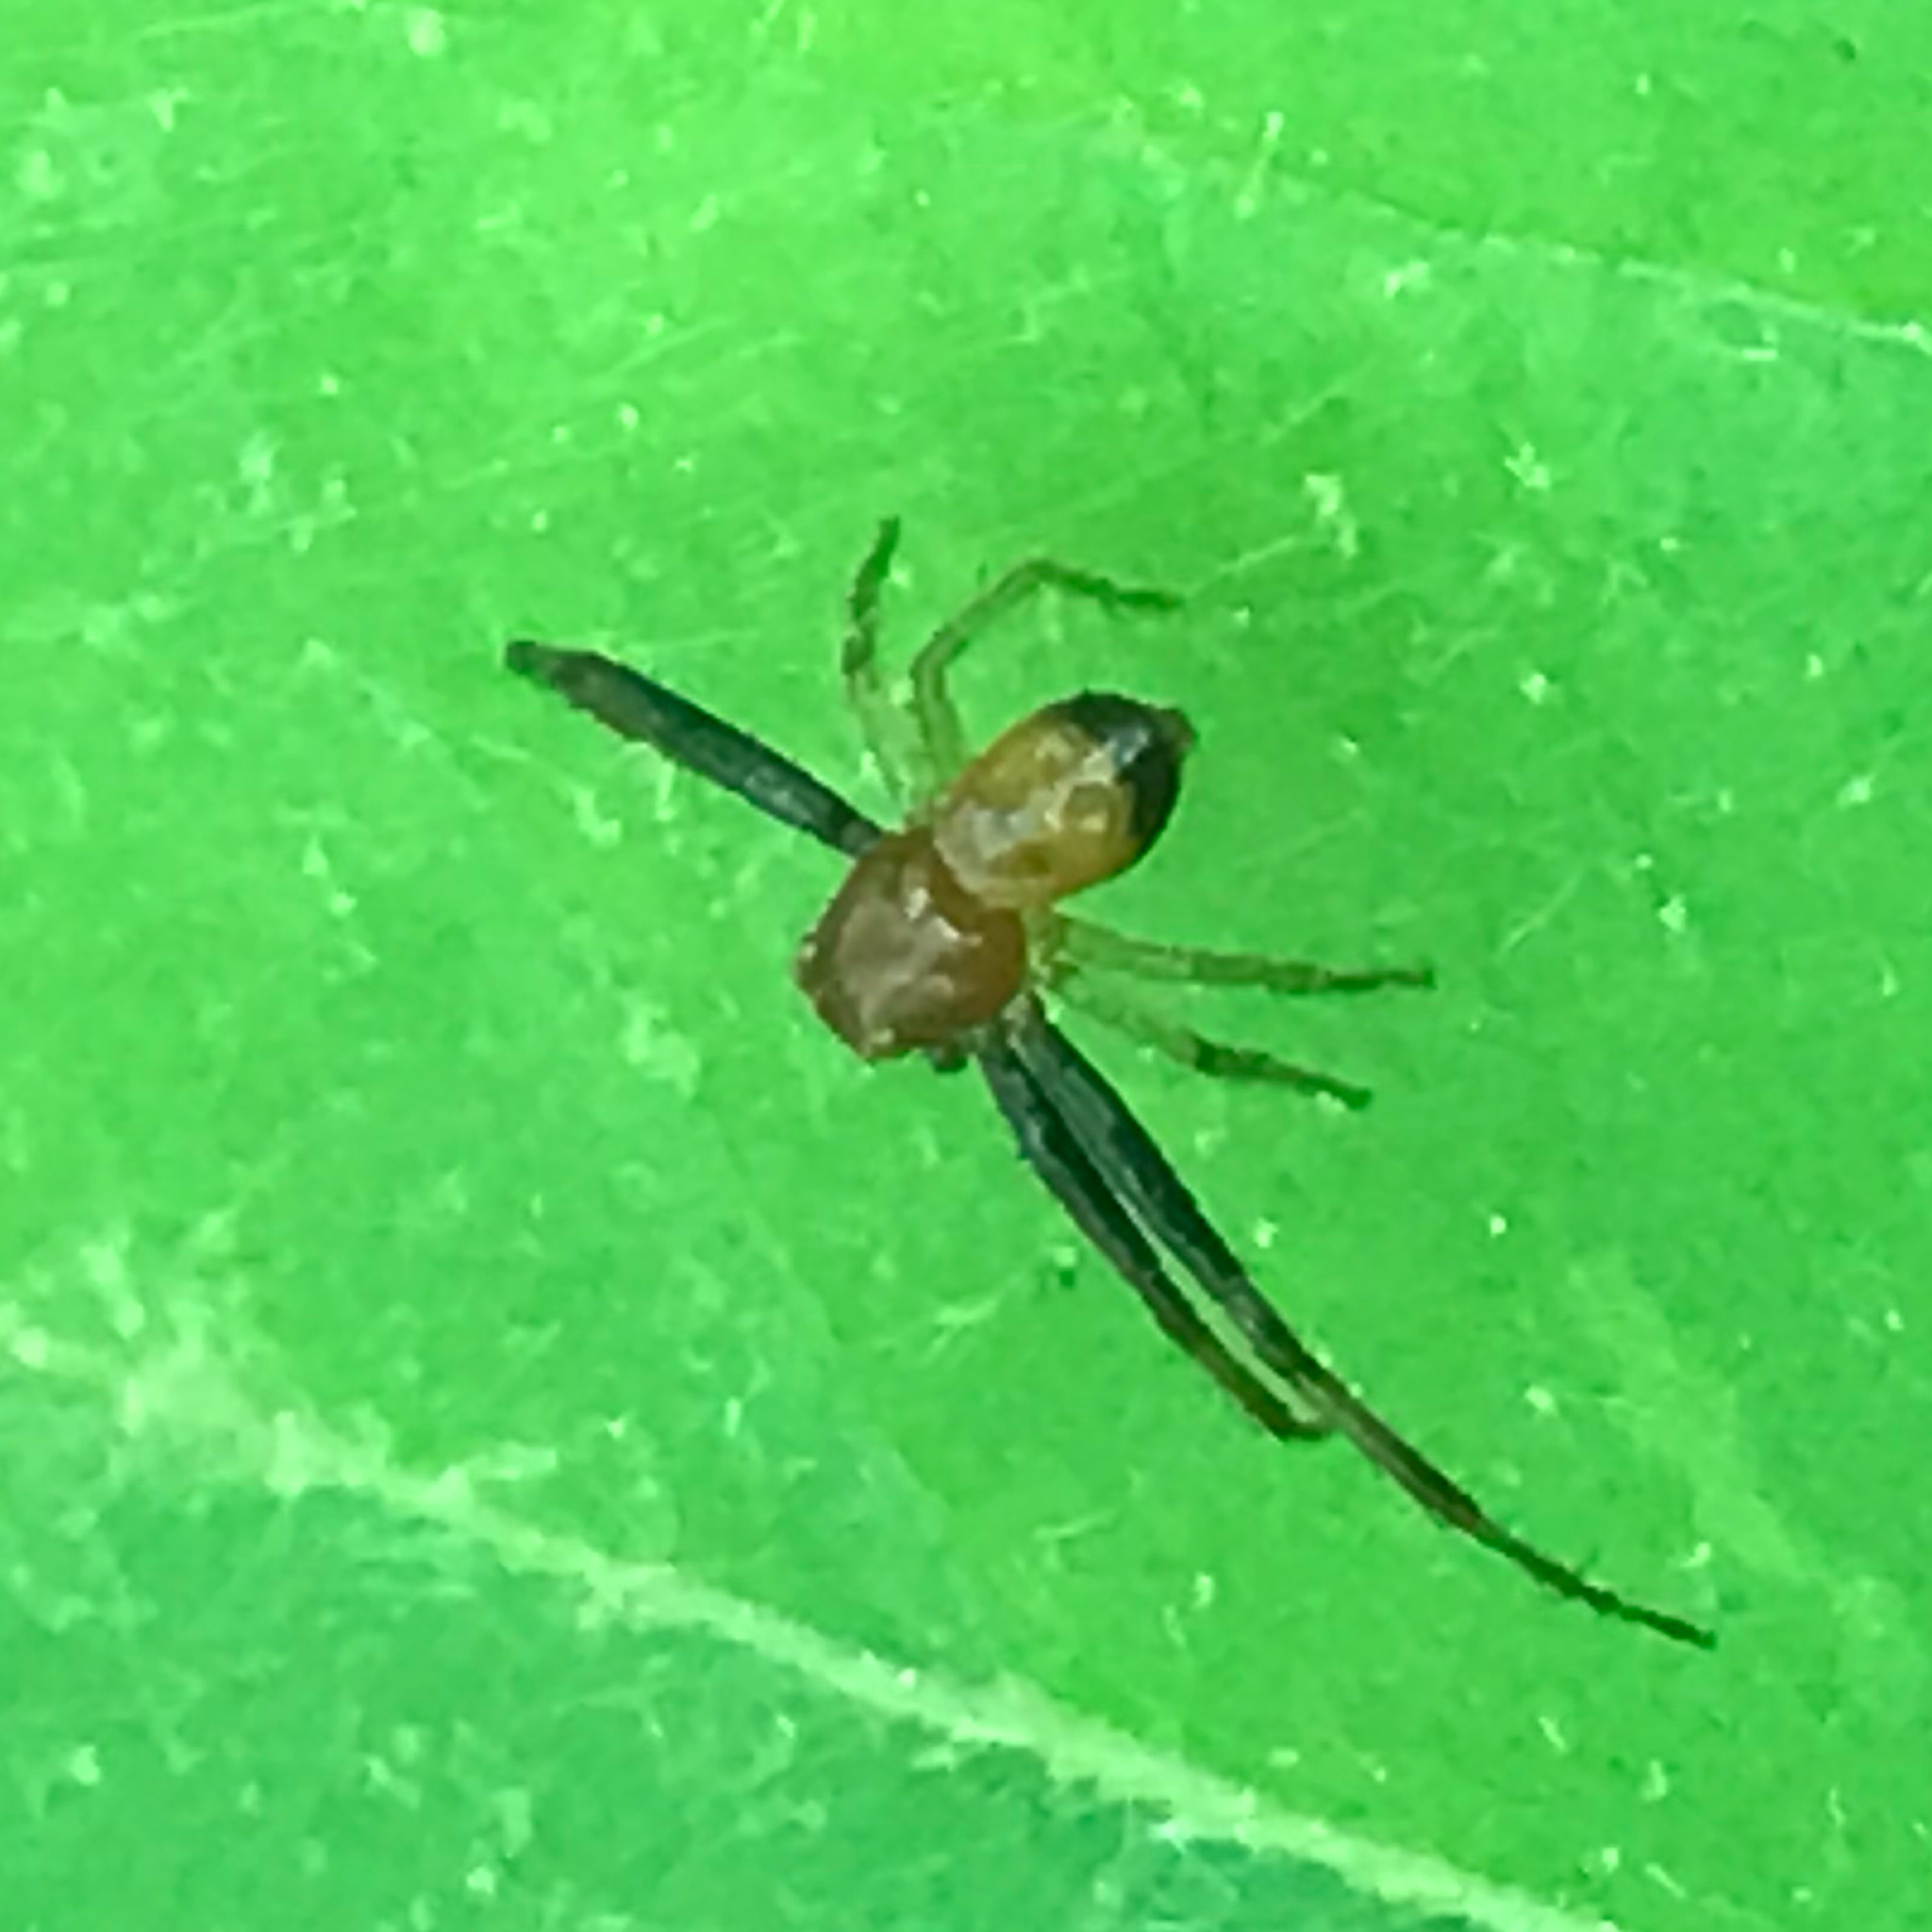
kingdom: Animalia
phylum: Arthropoda
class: Arachnida
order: Araneae
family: Thomisidae
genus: Synema
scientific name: Synema parvulum
